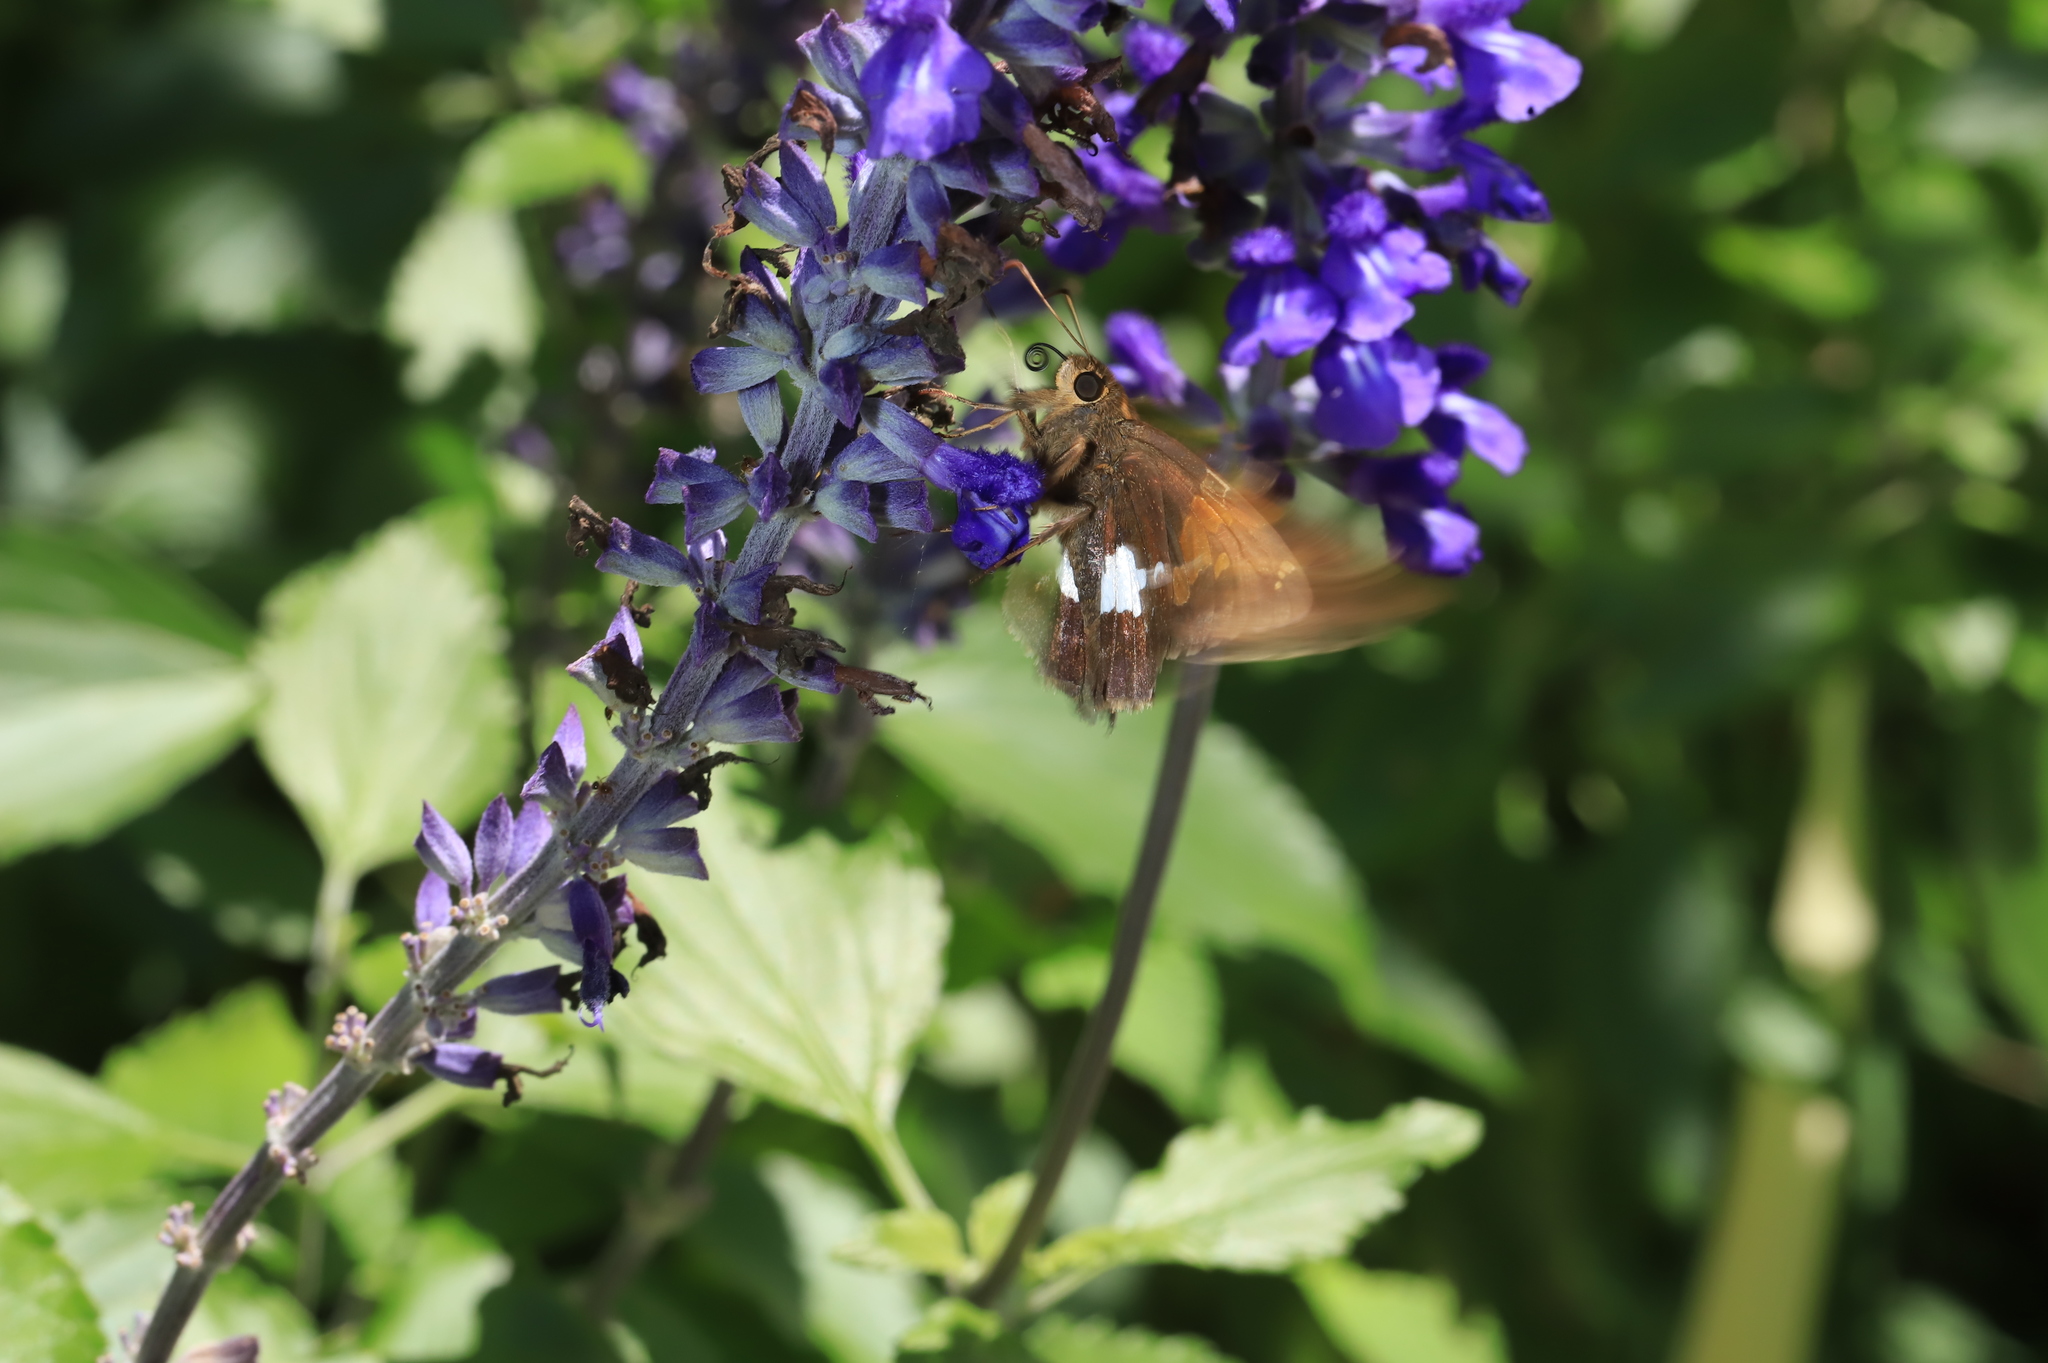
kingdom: Animalia
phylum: Arthropoda
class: Insecta
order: Lepidoptera
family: Hesperiidae
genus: Epargyreus
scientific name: Epargyreus clarus
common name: Silver-spotted skipper
